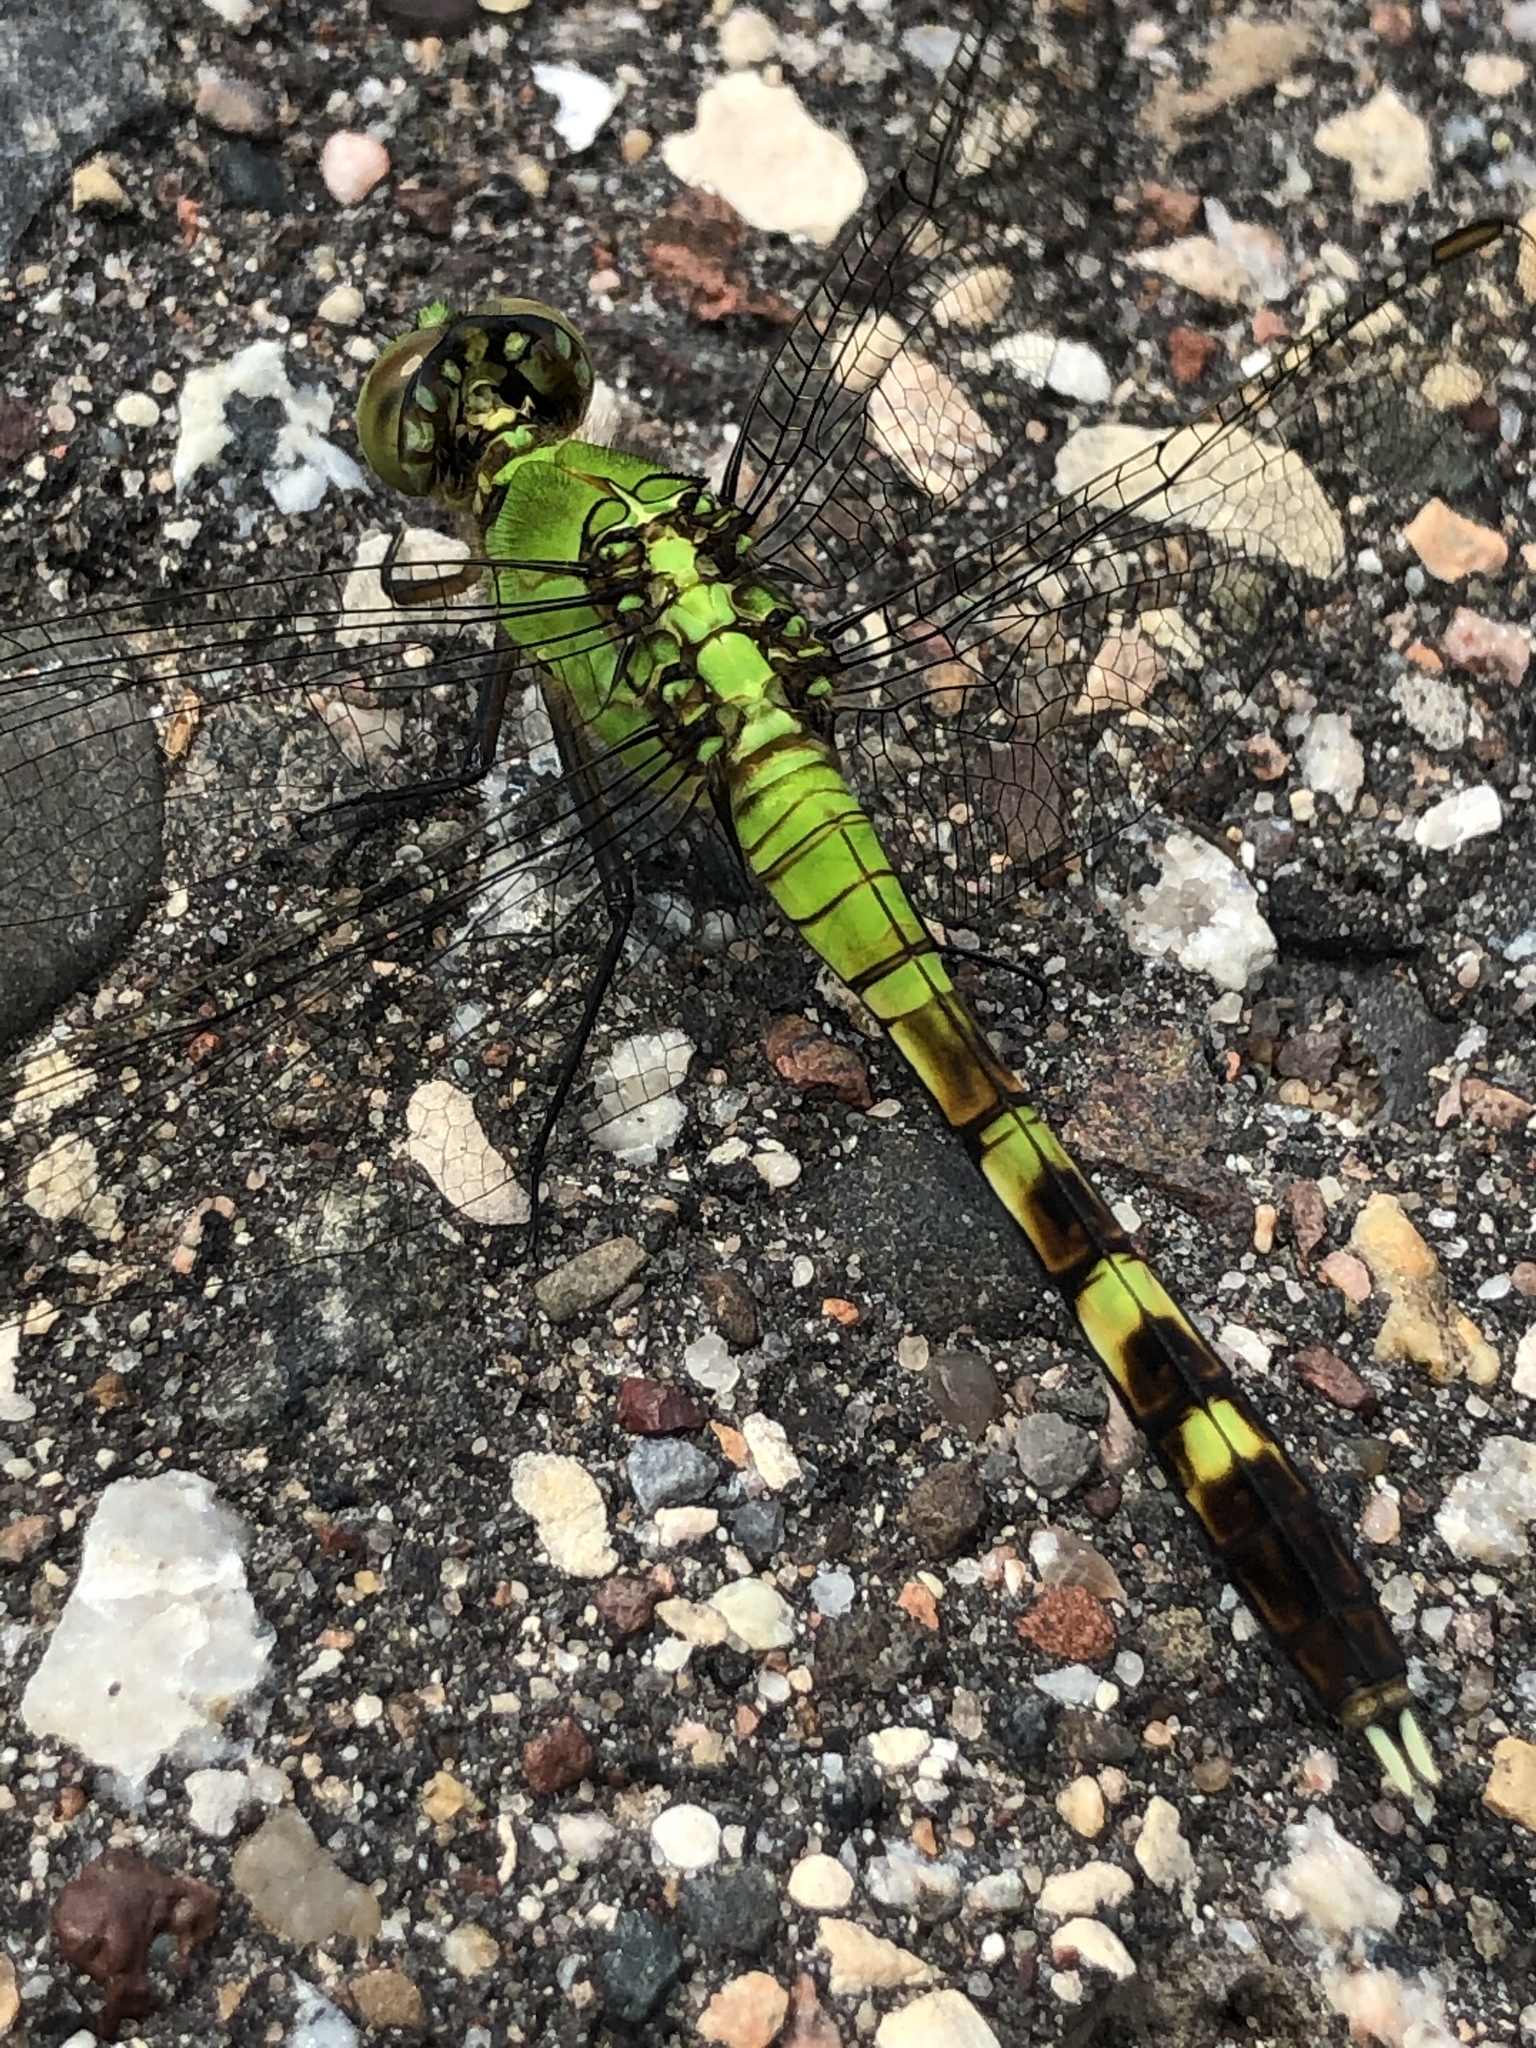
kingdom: Animalia
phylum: Arthropoda
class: Insecta
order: Odonata
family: Libellulidae
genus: Erythemis
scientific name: Erythemis simplicicollis
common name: Eastern pondhawk
